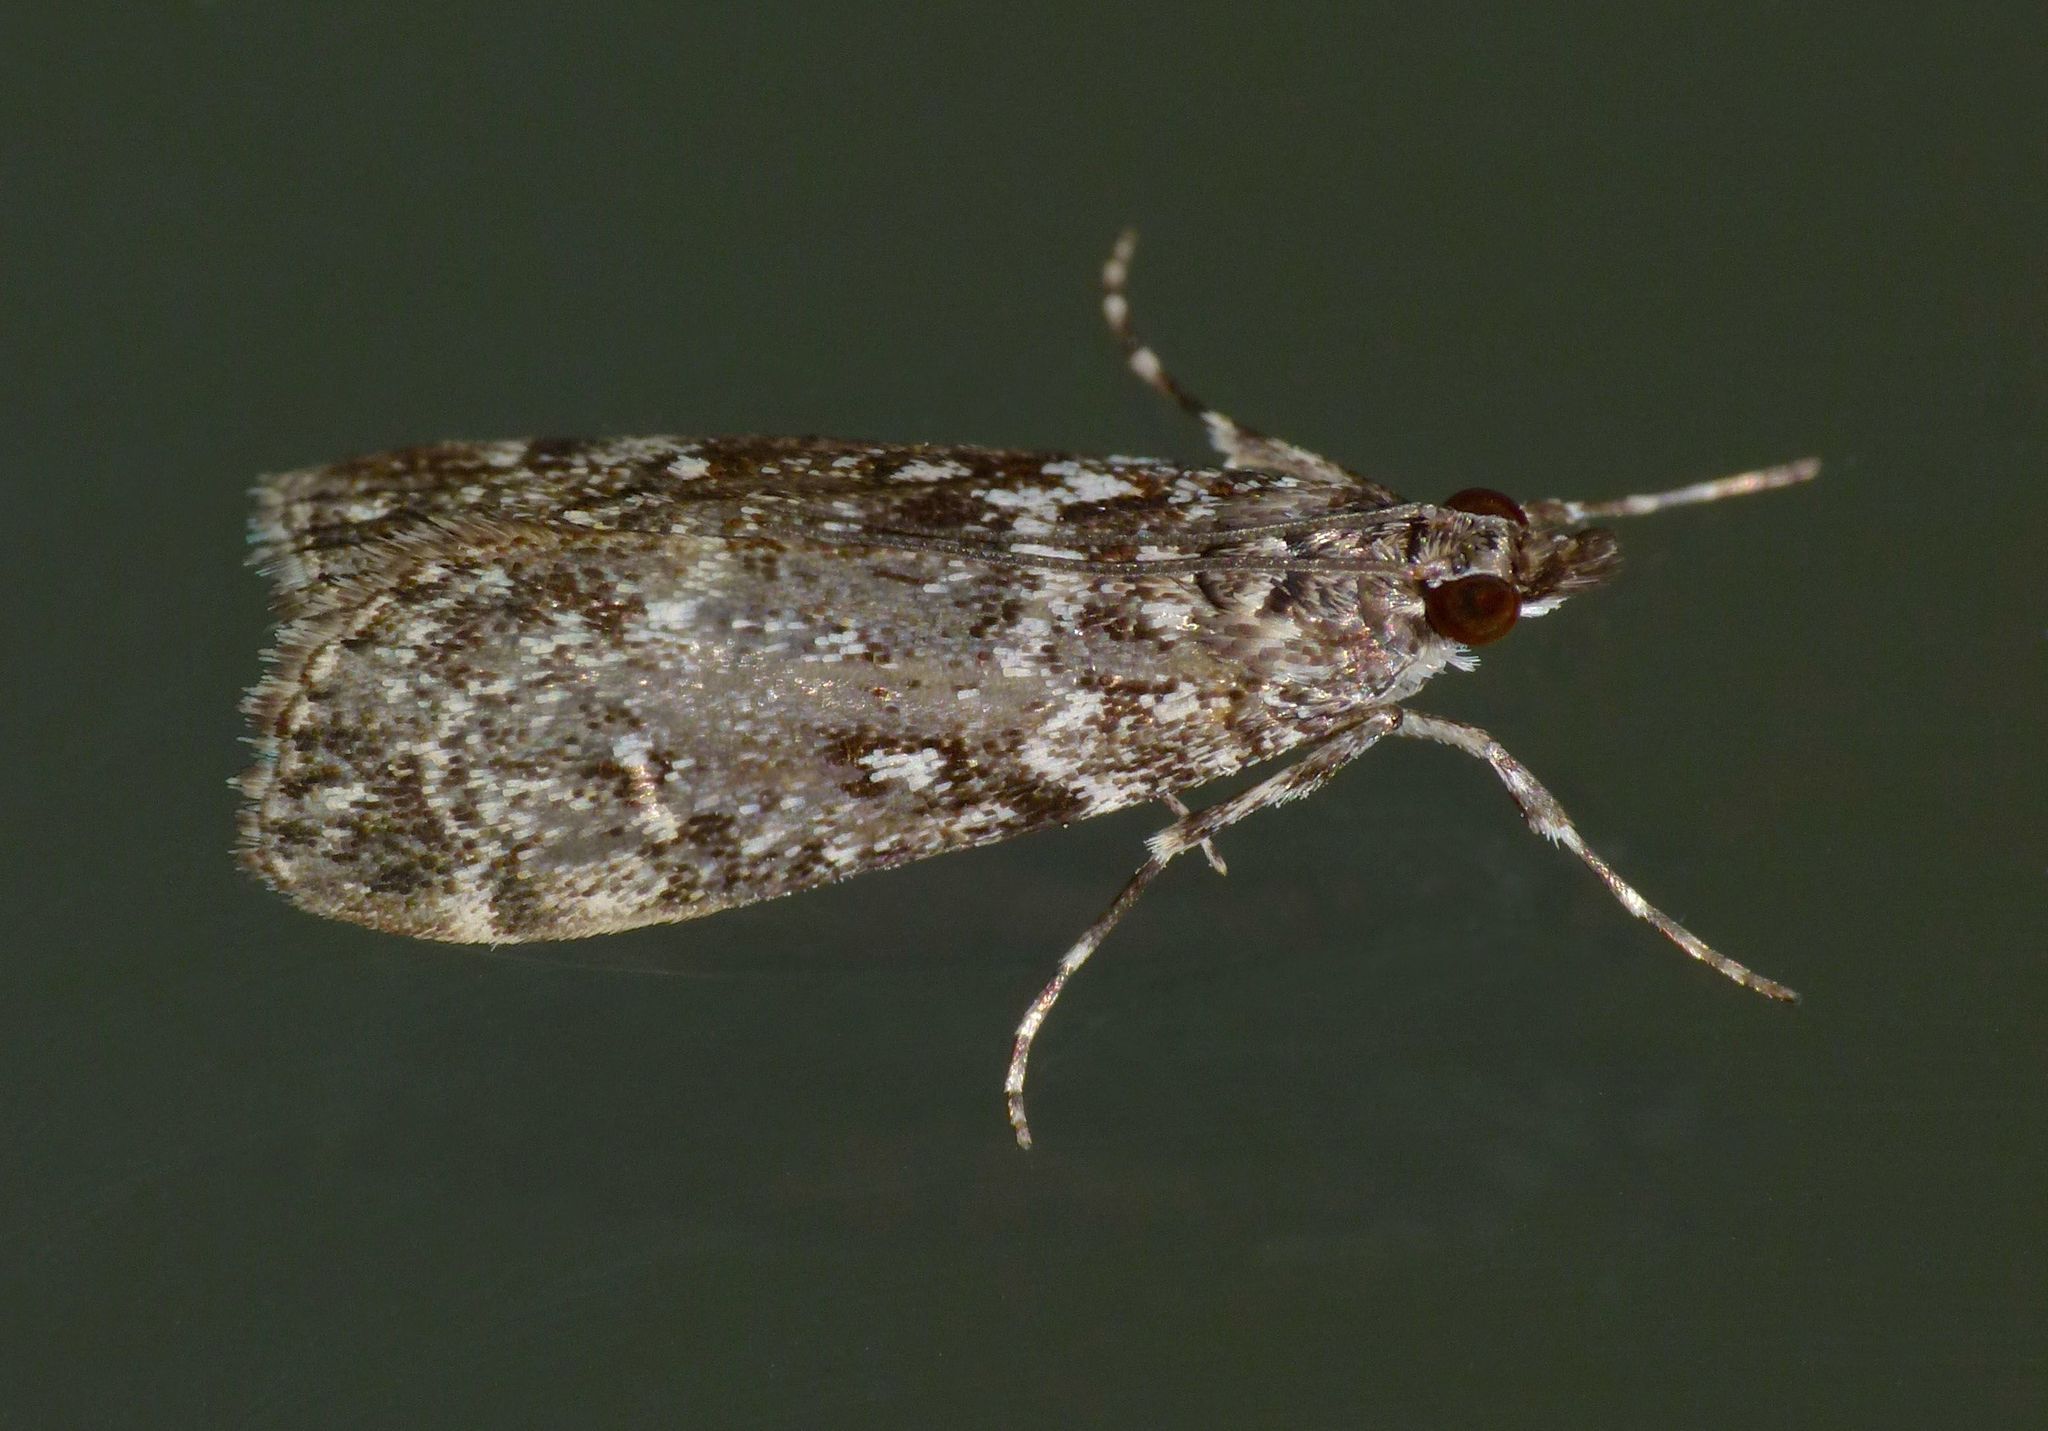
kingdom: Animalia
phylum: Arthropoda
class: Insecta
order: Lepidoptera
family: Crambidae
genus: Eudonia
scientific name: Eudonia philerga
